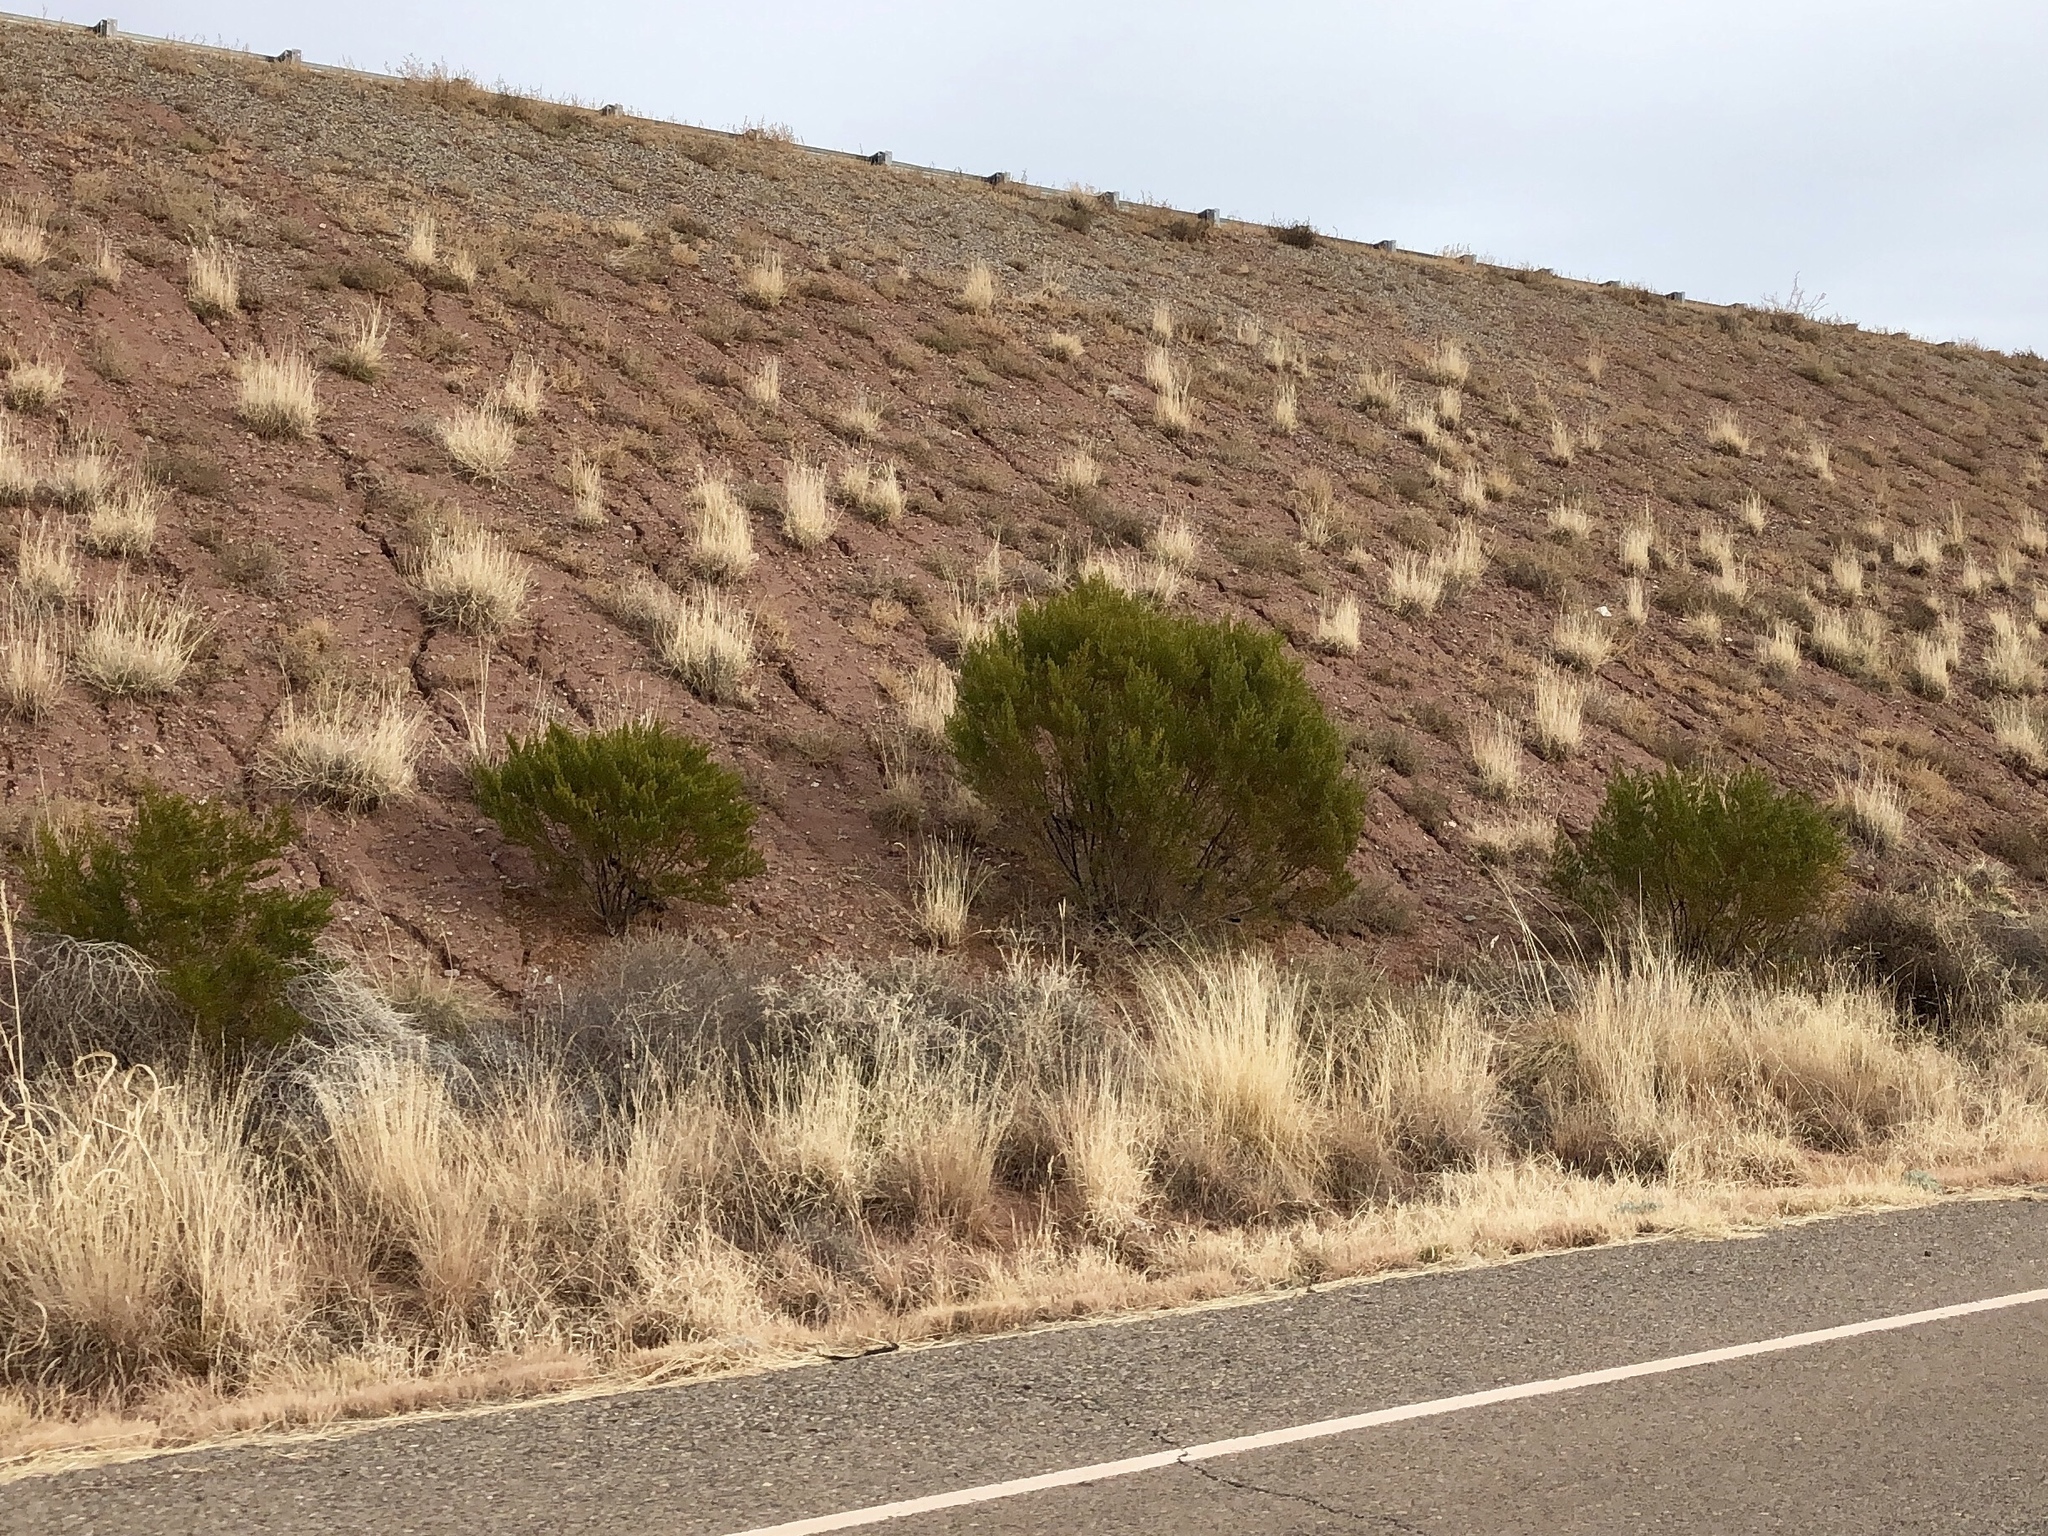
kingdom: Plantae
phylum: Tracheophyta
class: Magnoliopsida
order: Zygophyllales
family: Zygophyllaceae
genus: Larrea
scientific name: Larrea tridentata
